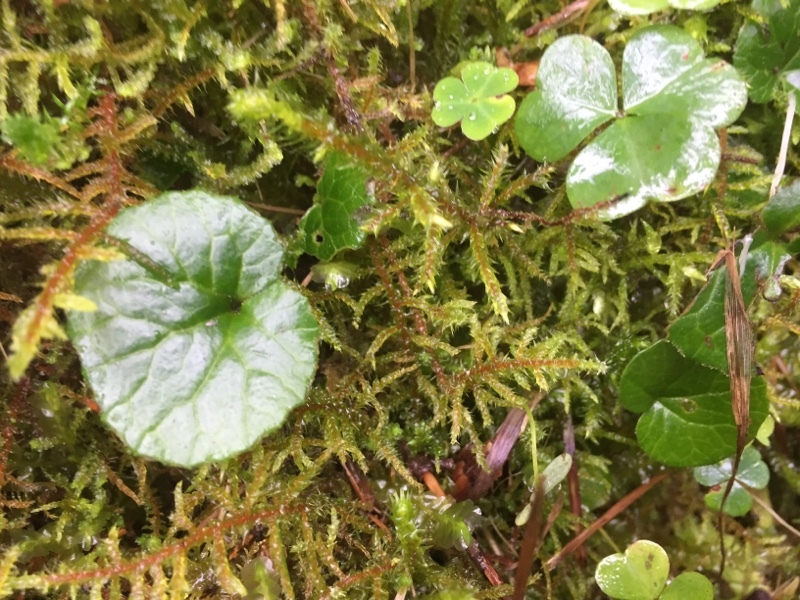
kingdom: Plantae
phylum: Tracheophyta
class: Magnoliopsida
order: Asterales
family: Asteraceae
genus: Homogyne
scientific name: Homogyne alpina
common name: Purple colt's-foot
